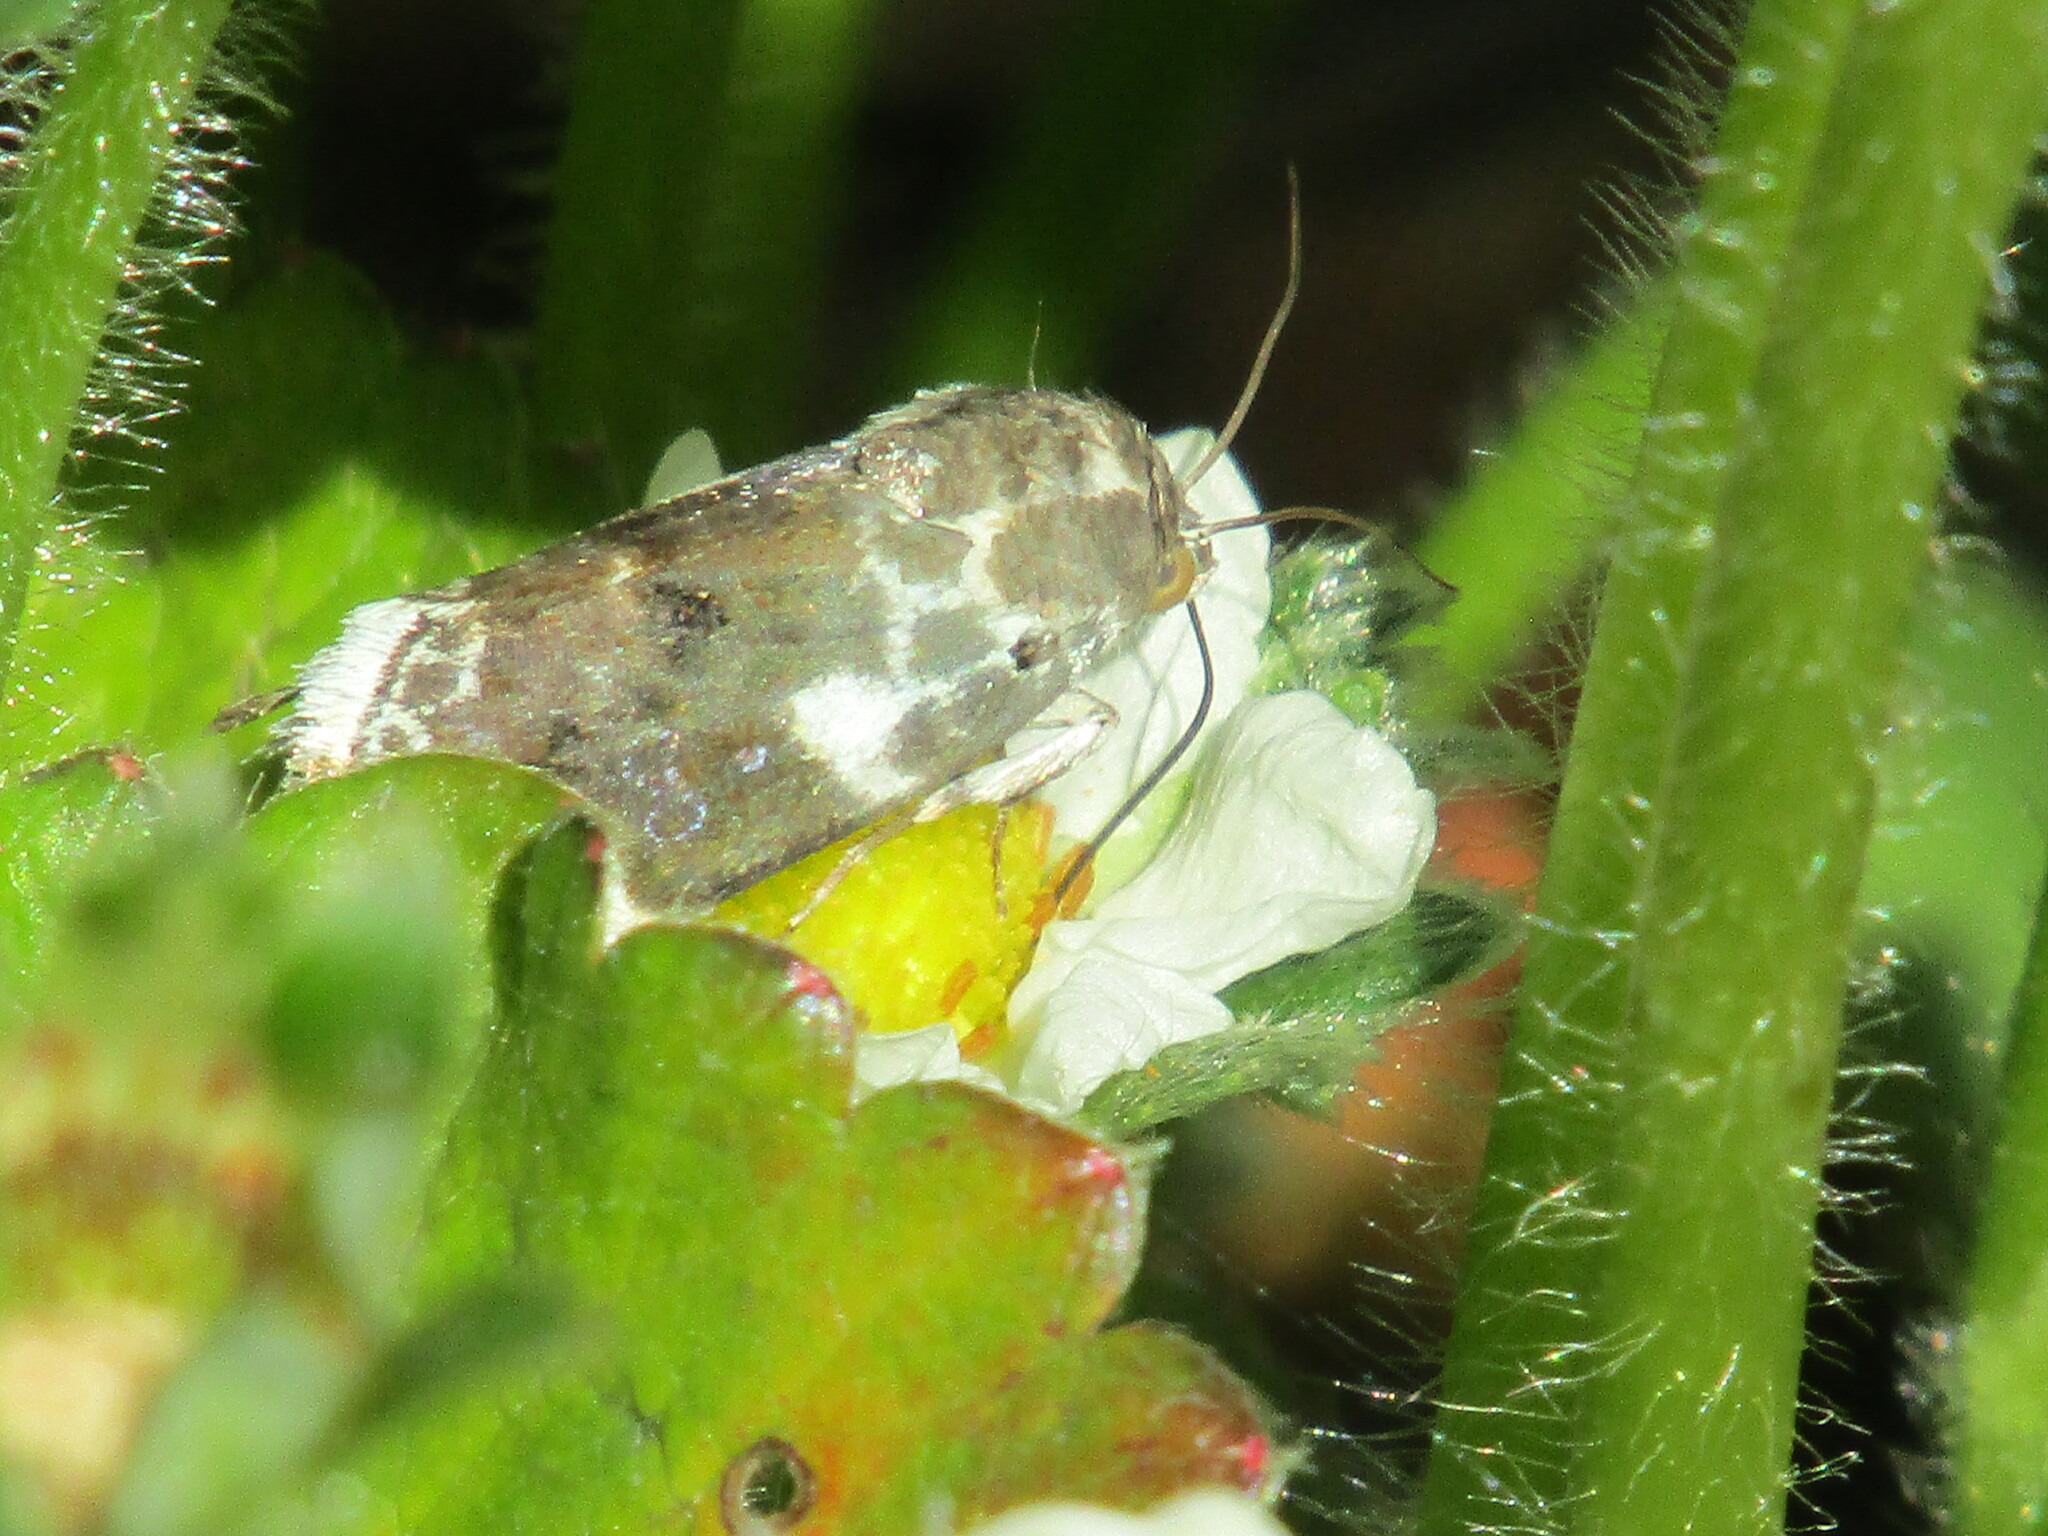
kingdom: Animalia
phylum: Arthropoda
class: Insecta
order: Lepidoptera
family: Noctuidae
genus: Acontia
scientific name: Acontia lucida
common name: Pale shoulder
